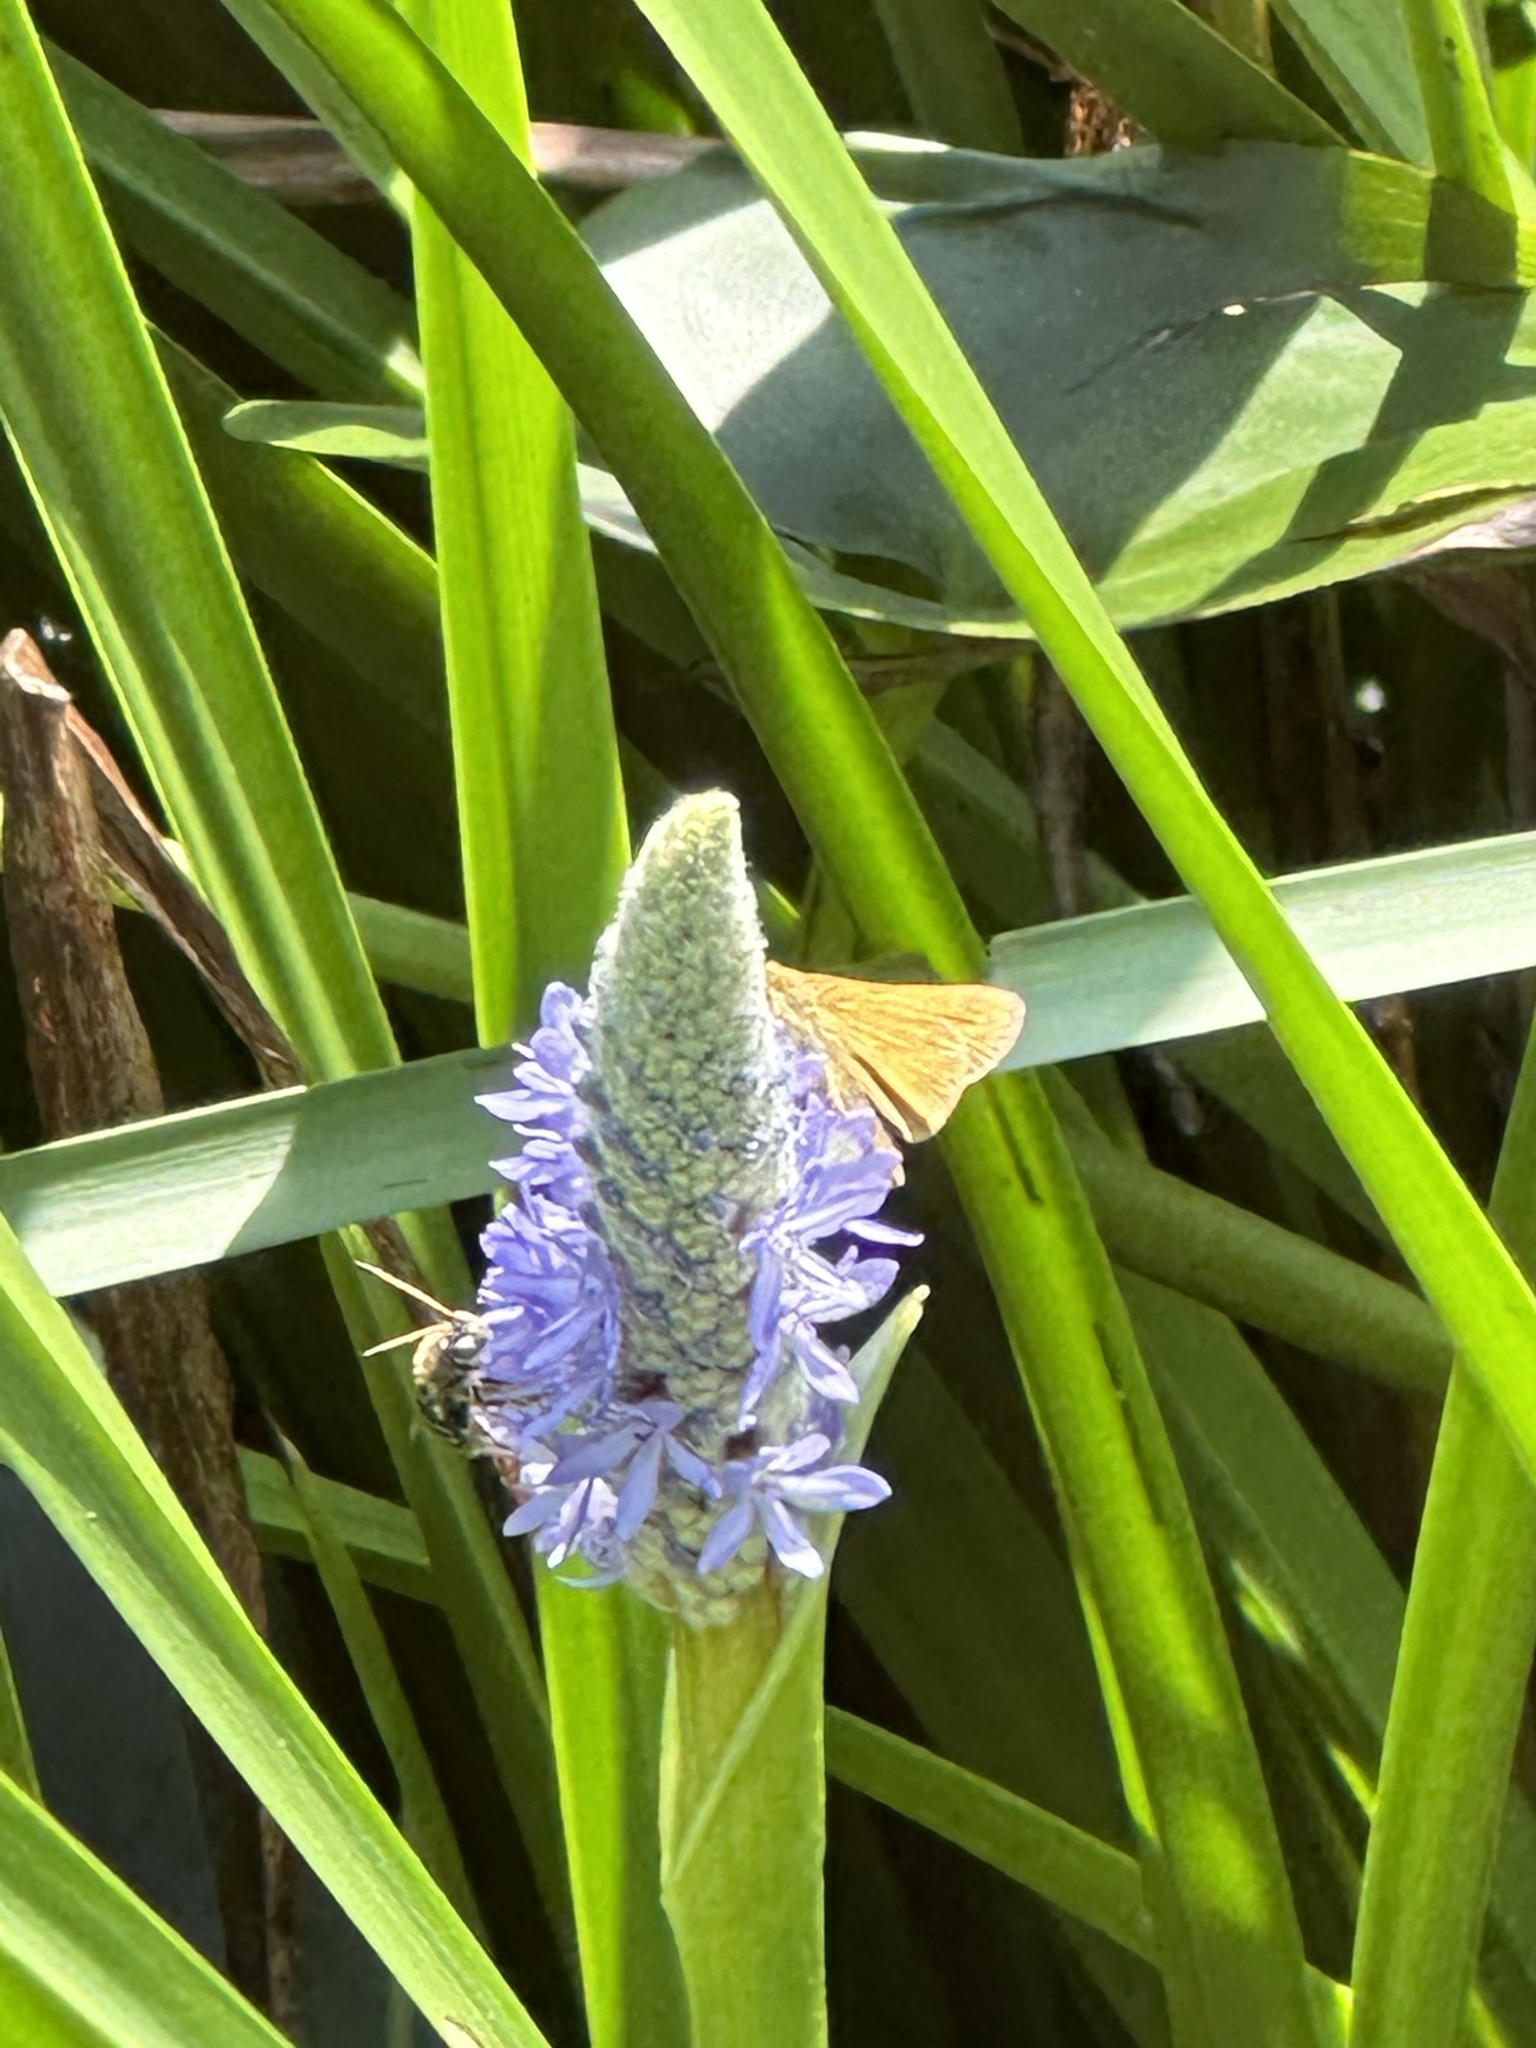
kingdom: Animalia
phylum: Arthropoda
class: Insecta
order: Lepidoptera
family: Hesperiidae
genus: Atalopedes
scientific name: Atalopedes
